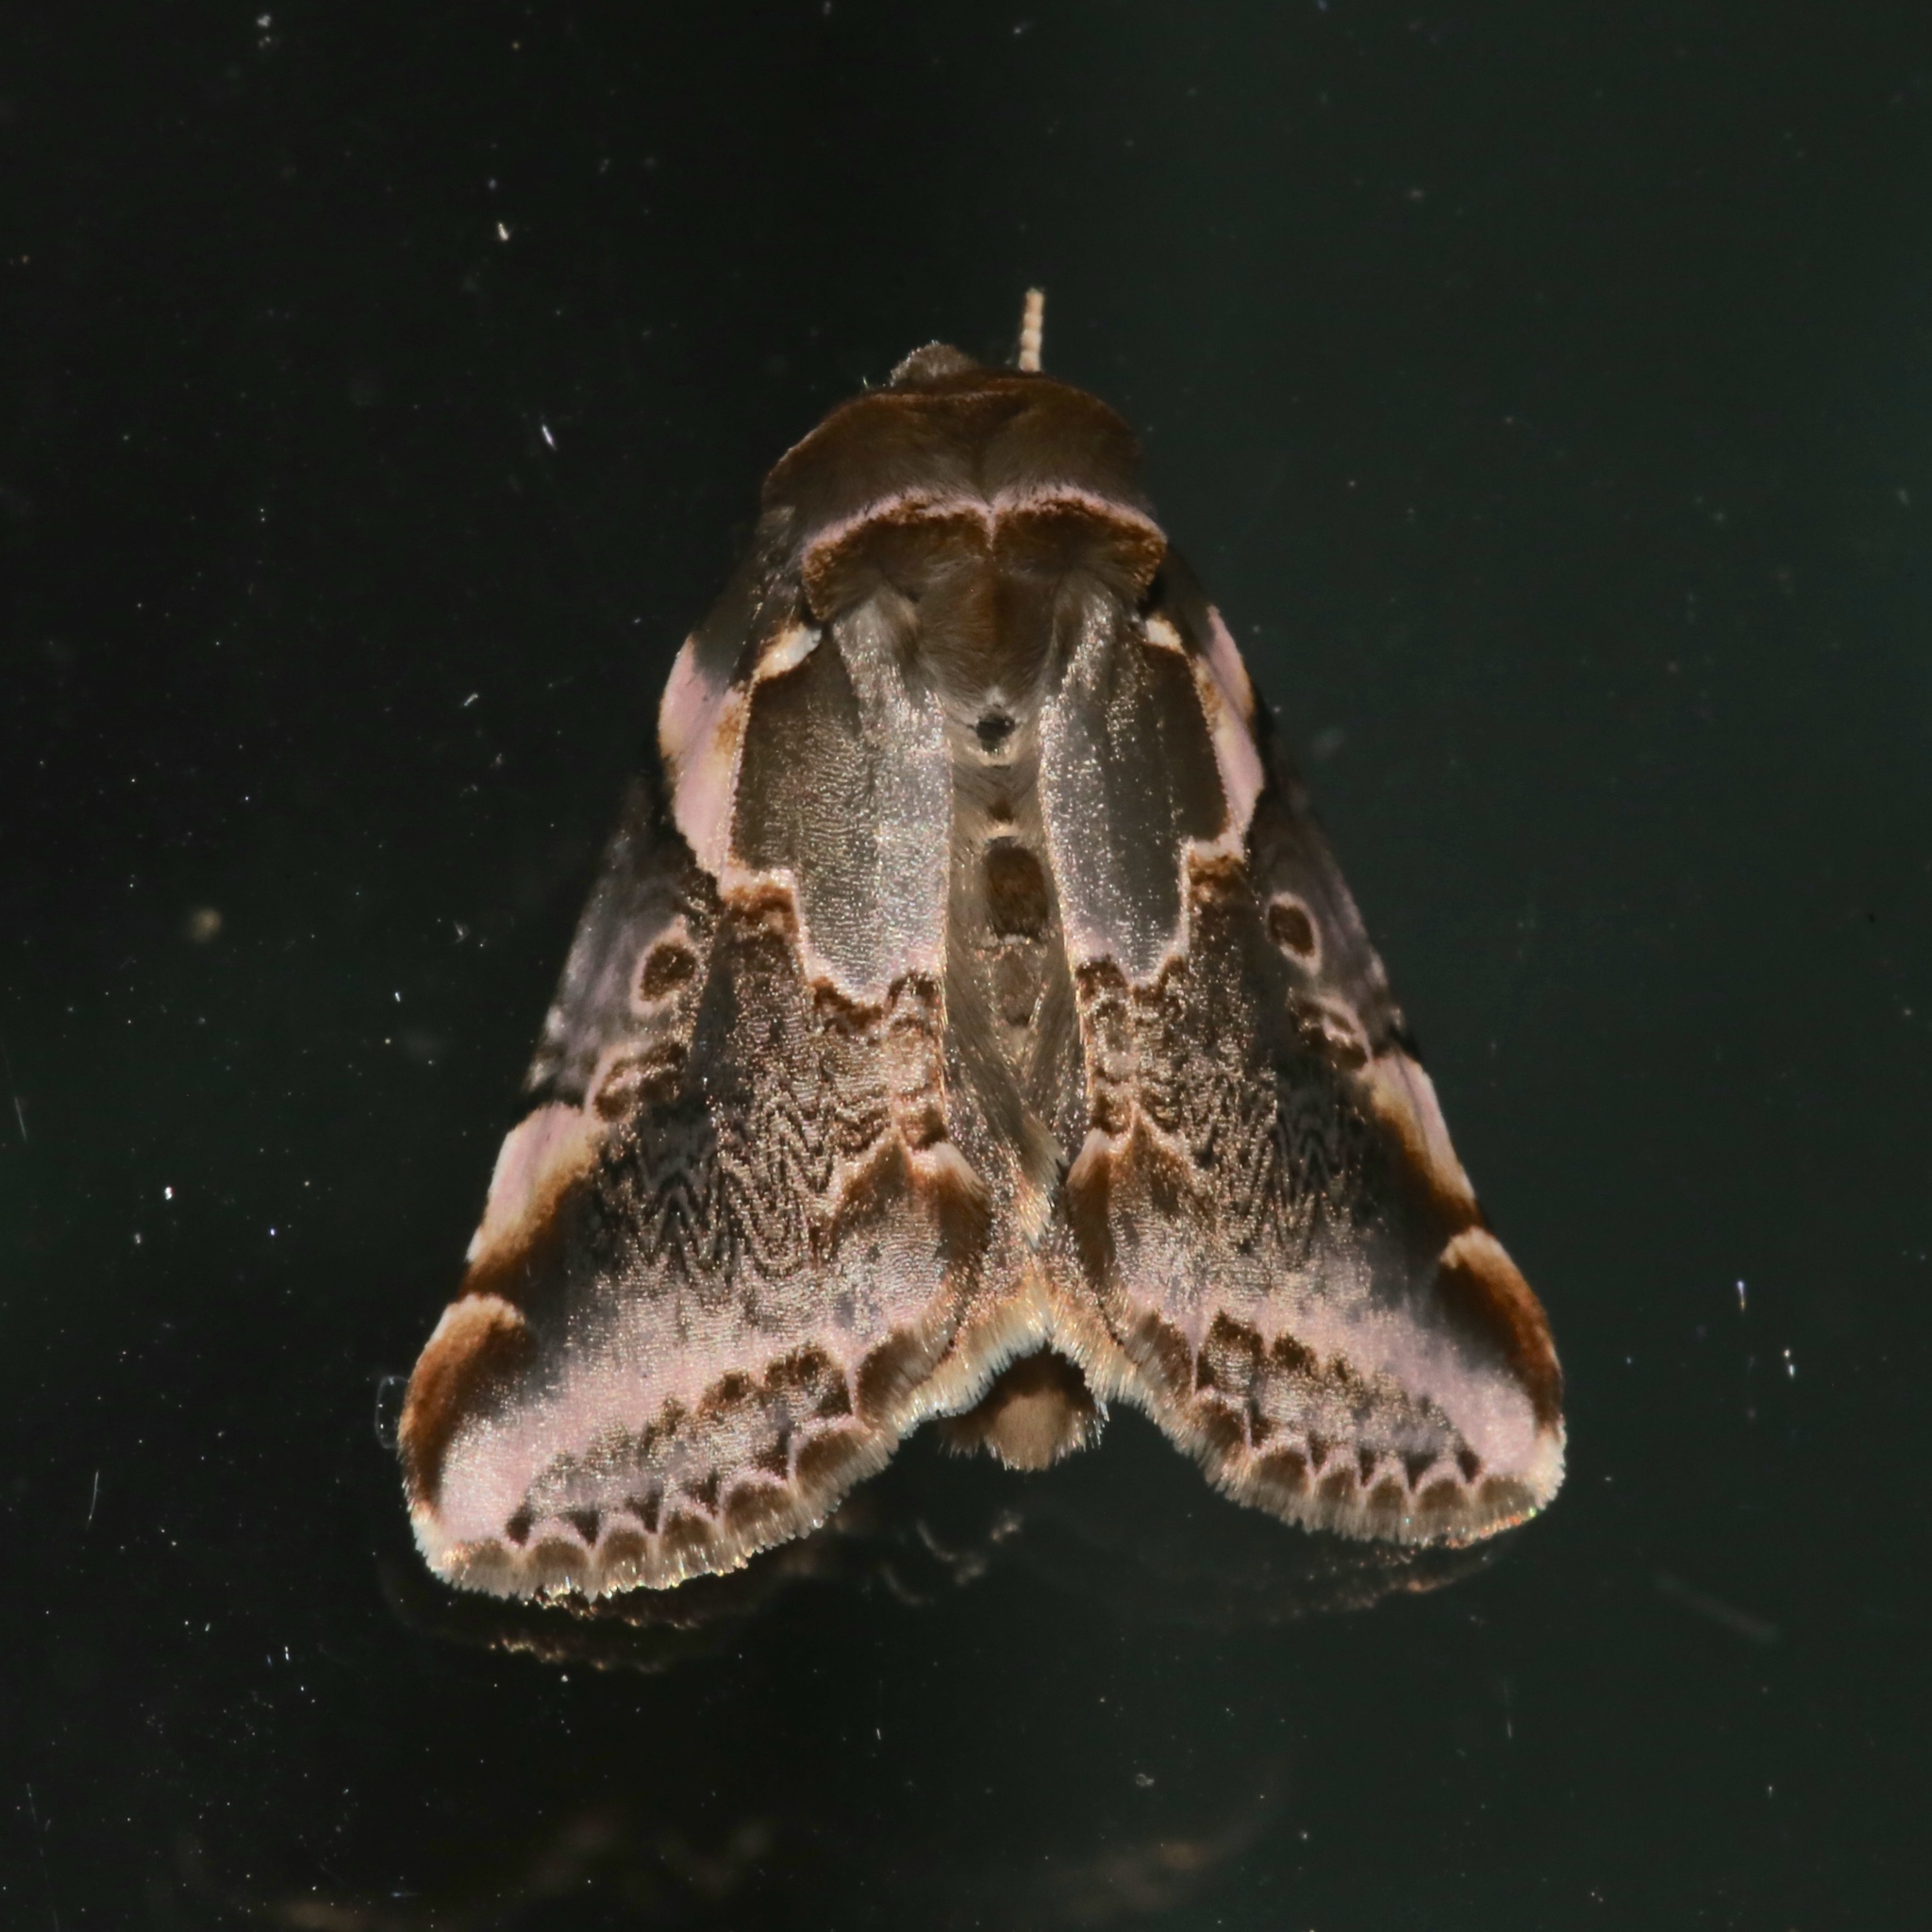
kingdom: Animalia
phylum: Arthropoda
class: Insecta
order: Lepidoptera
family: Drepanidae
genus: Habrosyne
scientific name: Habrosyne gloriosa
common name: Glorious habrosyne moth
